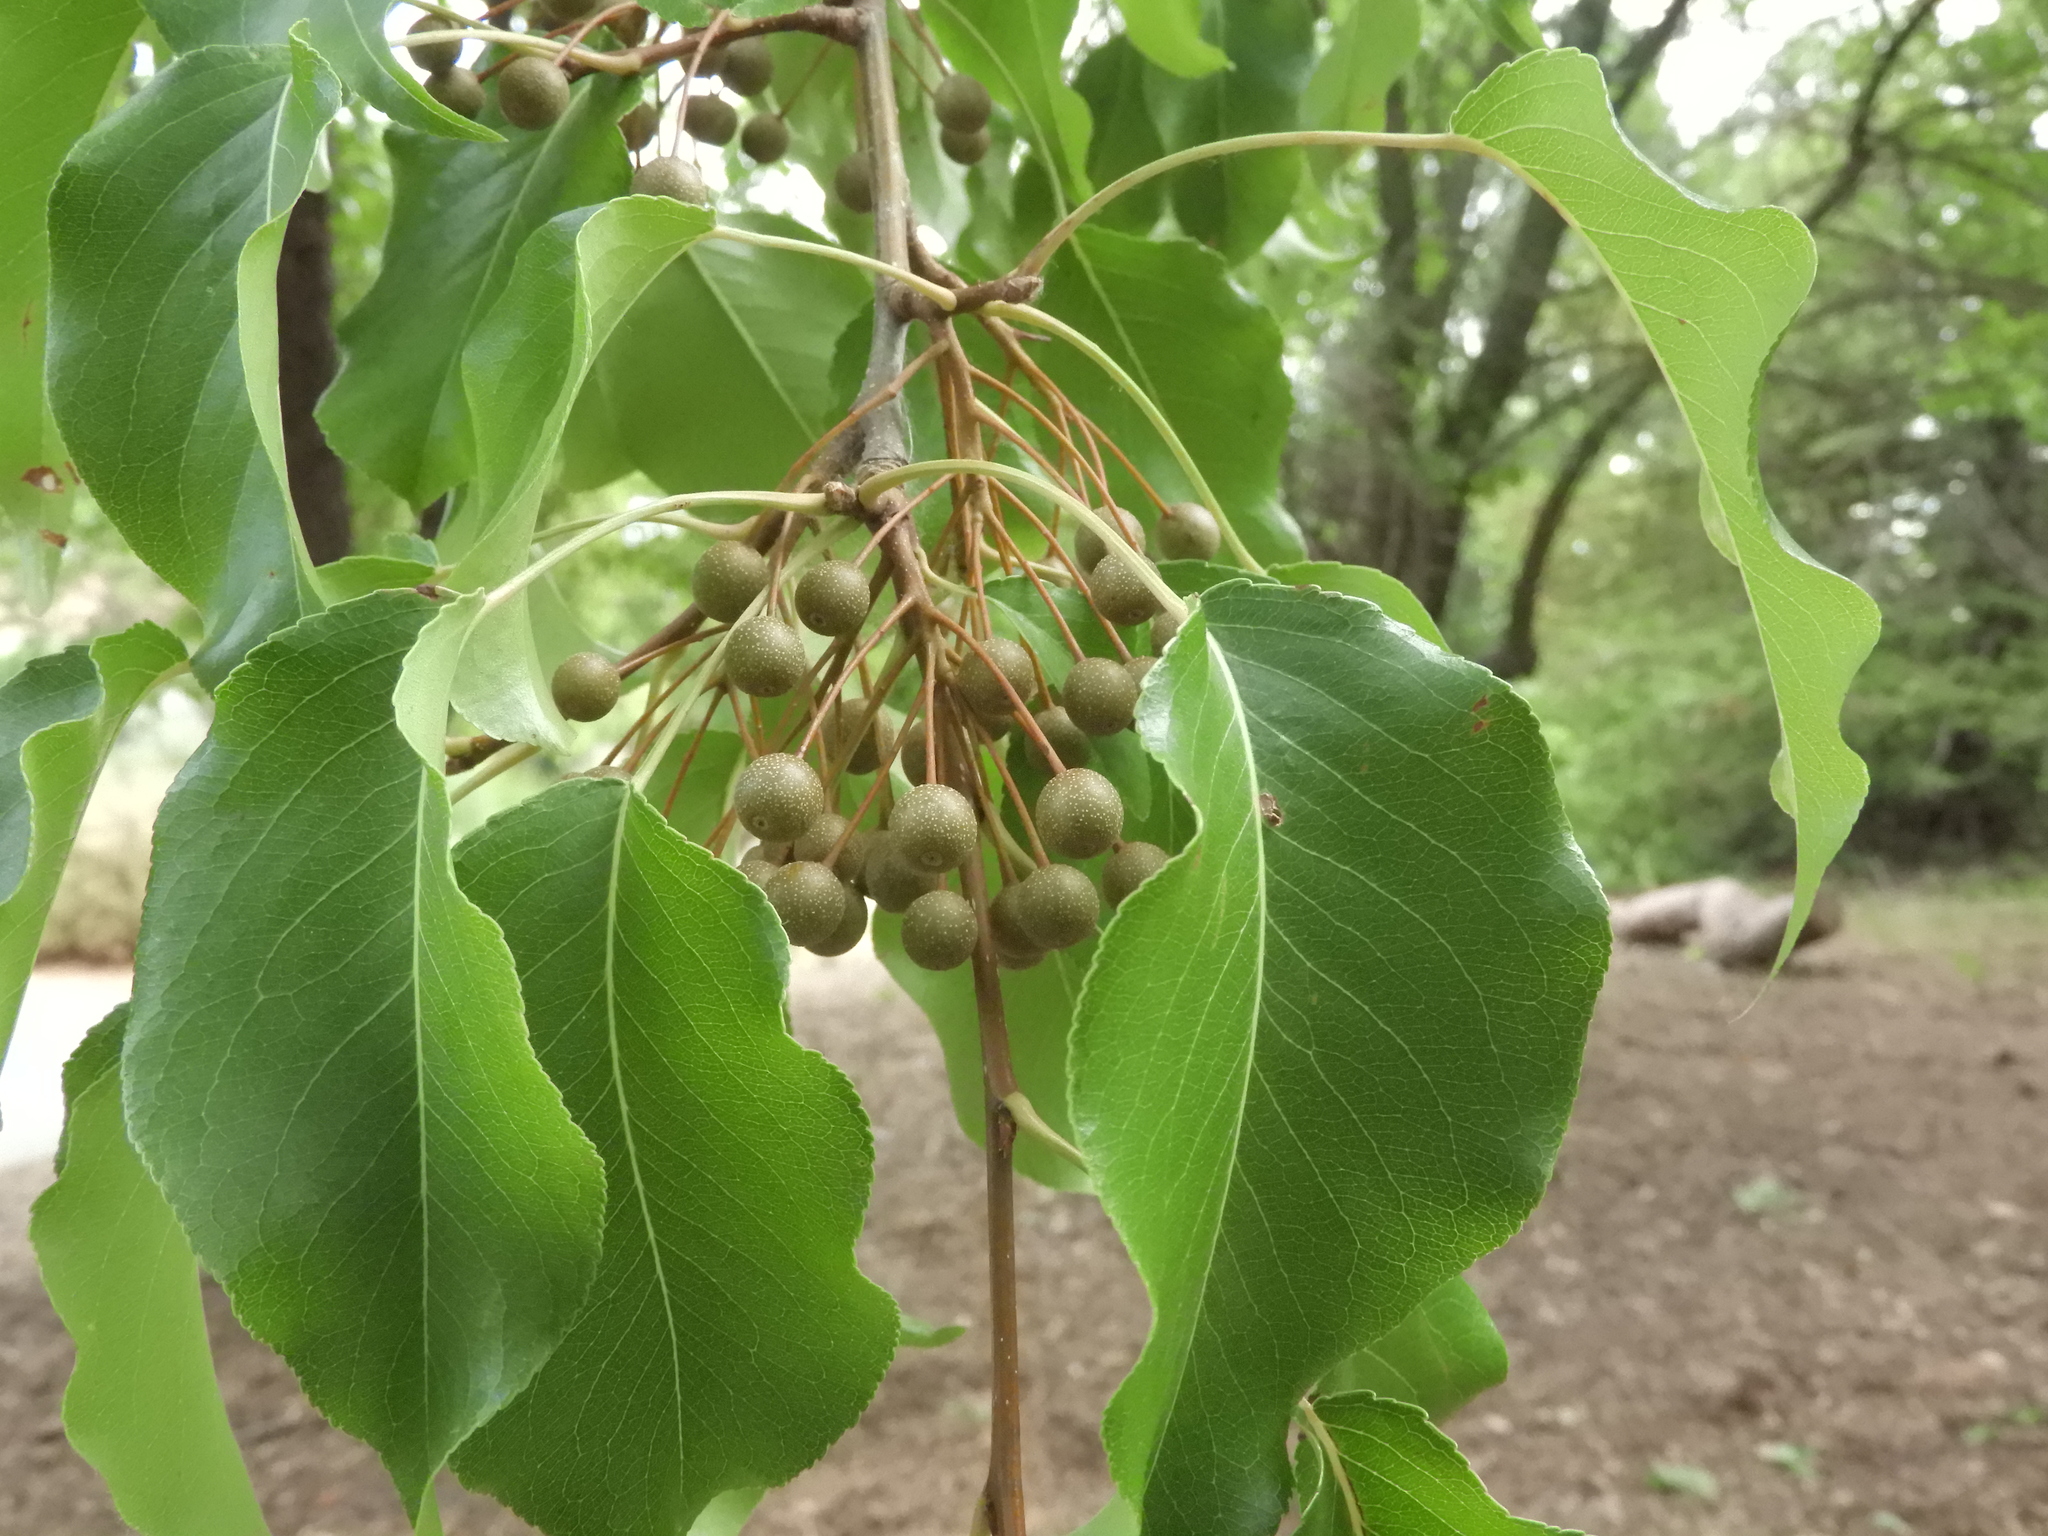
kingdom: Plantae
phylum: Tracheophyta
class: Magnoliopsida
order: Rosales
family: Rosaceae
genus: Pyrus
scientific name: Pyrus calleryana
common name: Callery pear
